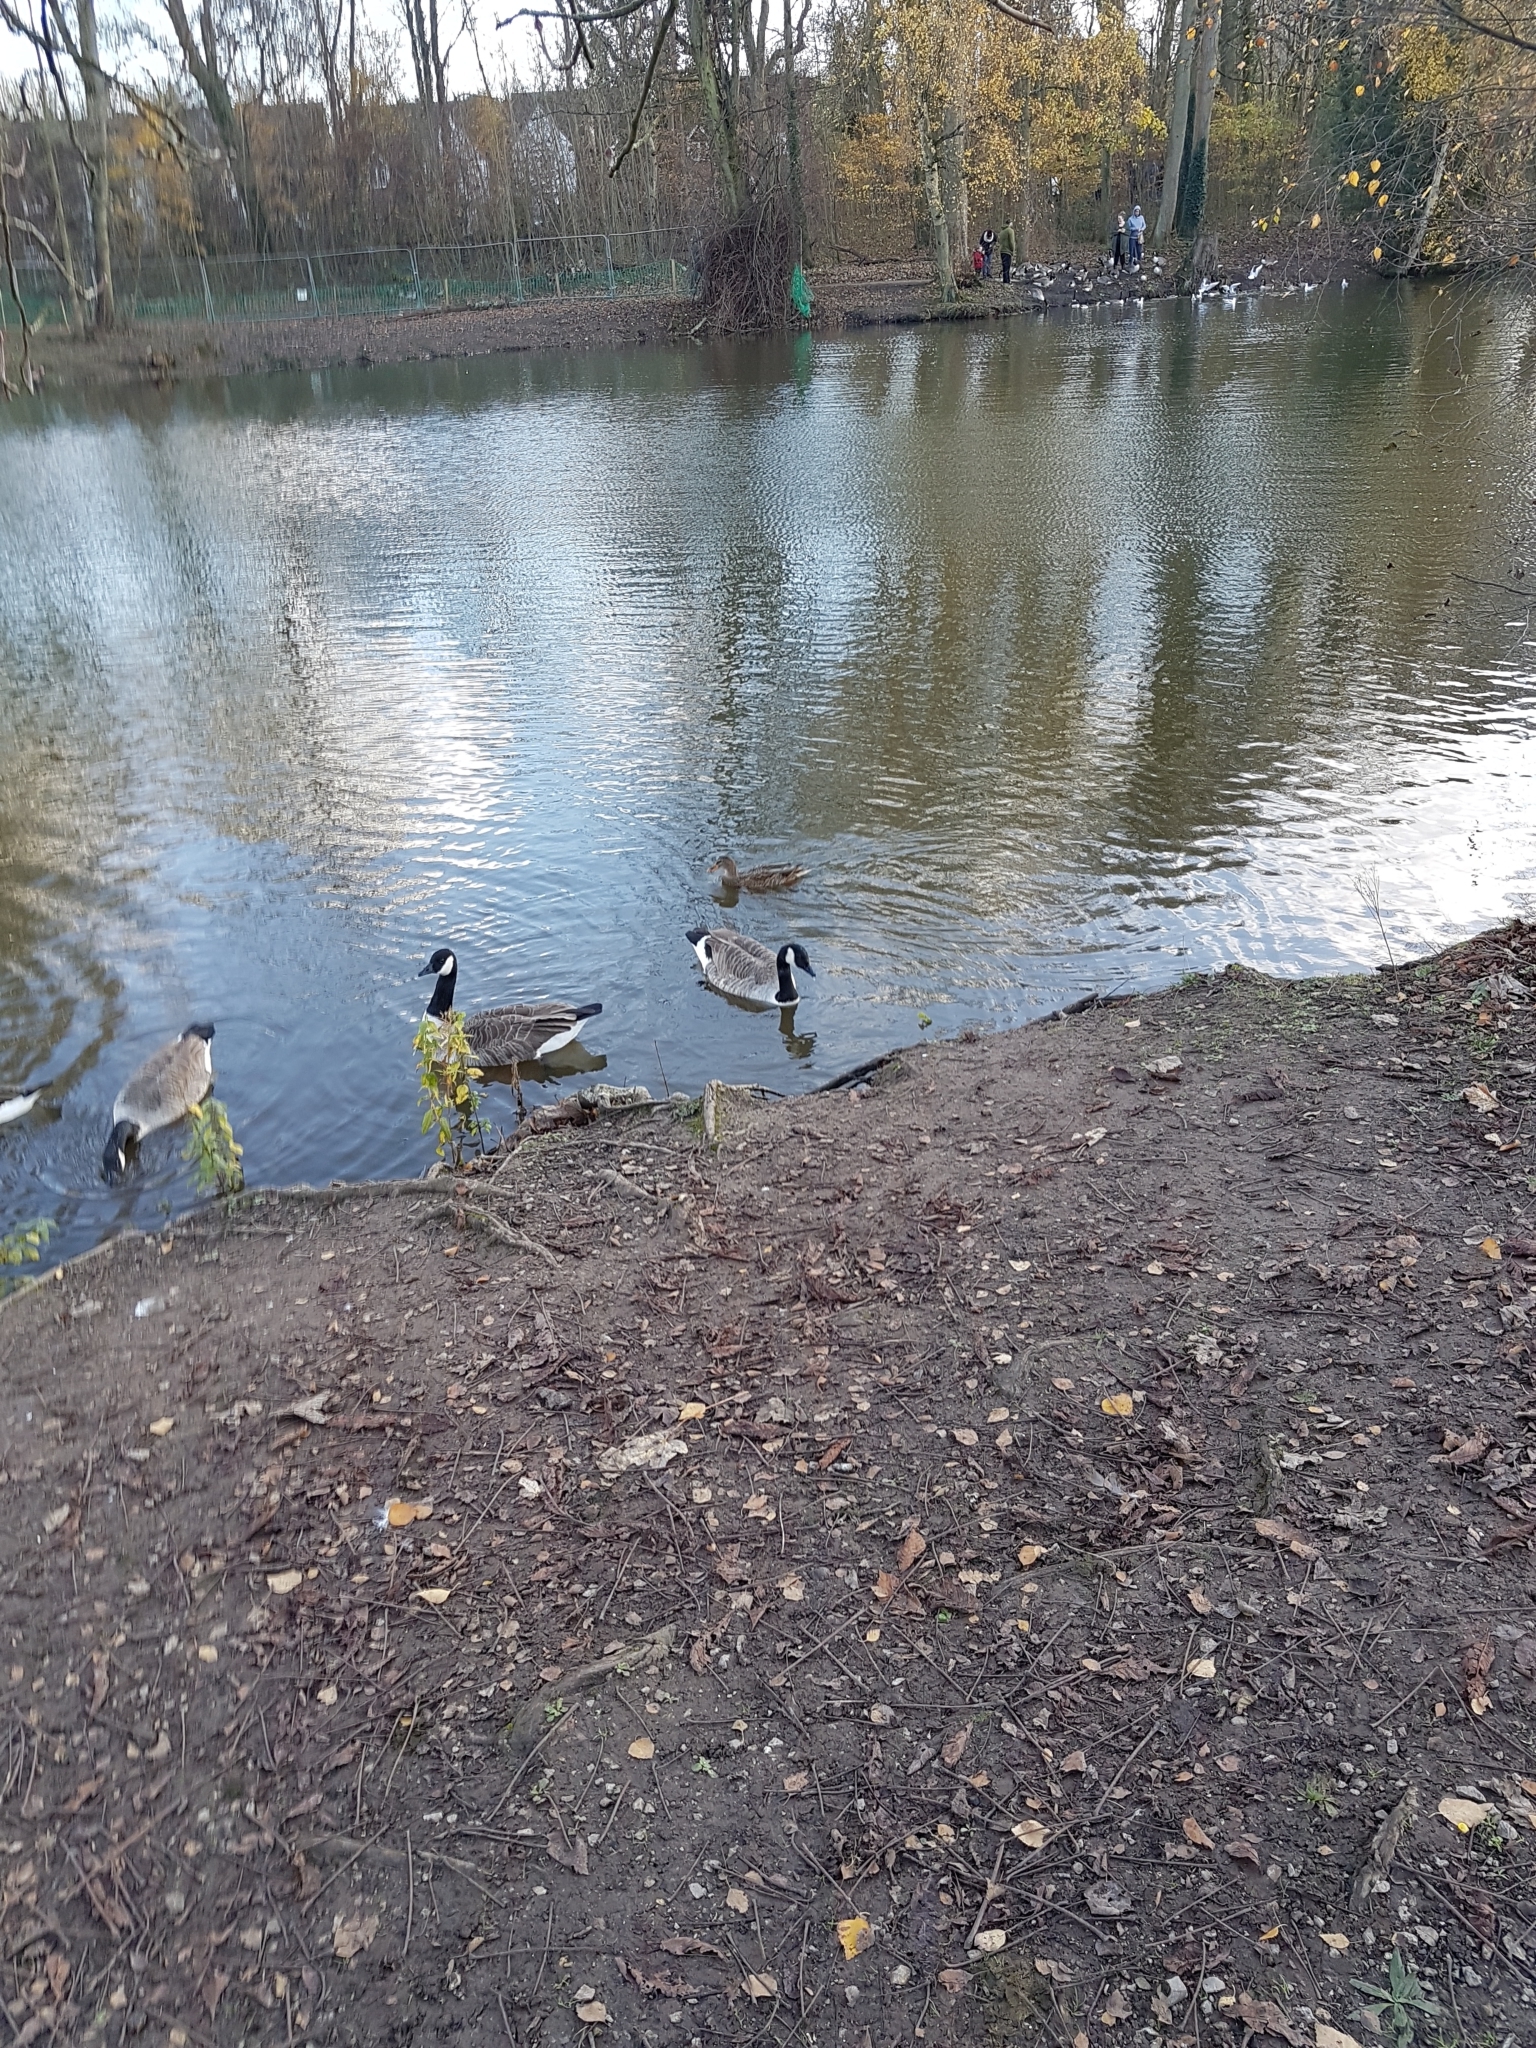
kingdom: Animalia
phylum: Chordata
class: Aves
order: Anseriformes
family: Anatidae
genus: Anas
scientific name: Anas platyrhynchos
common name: Mallard
